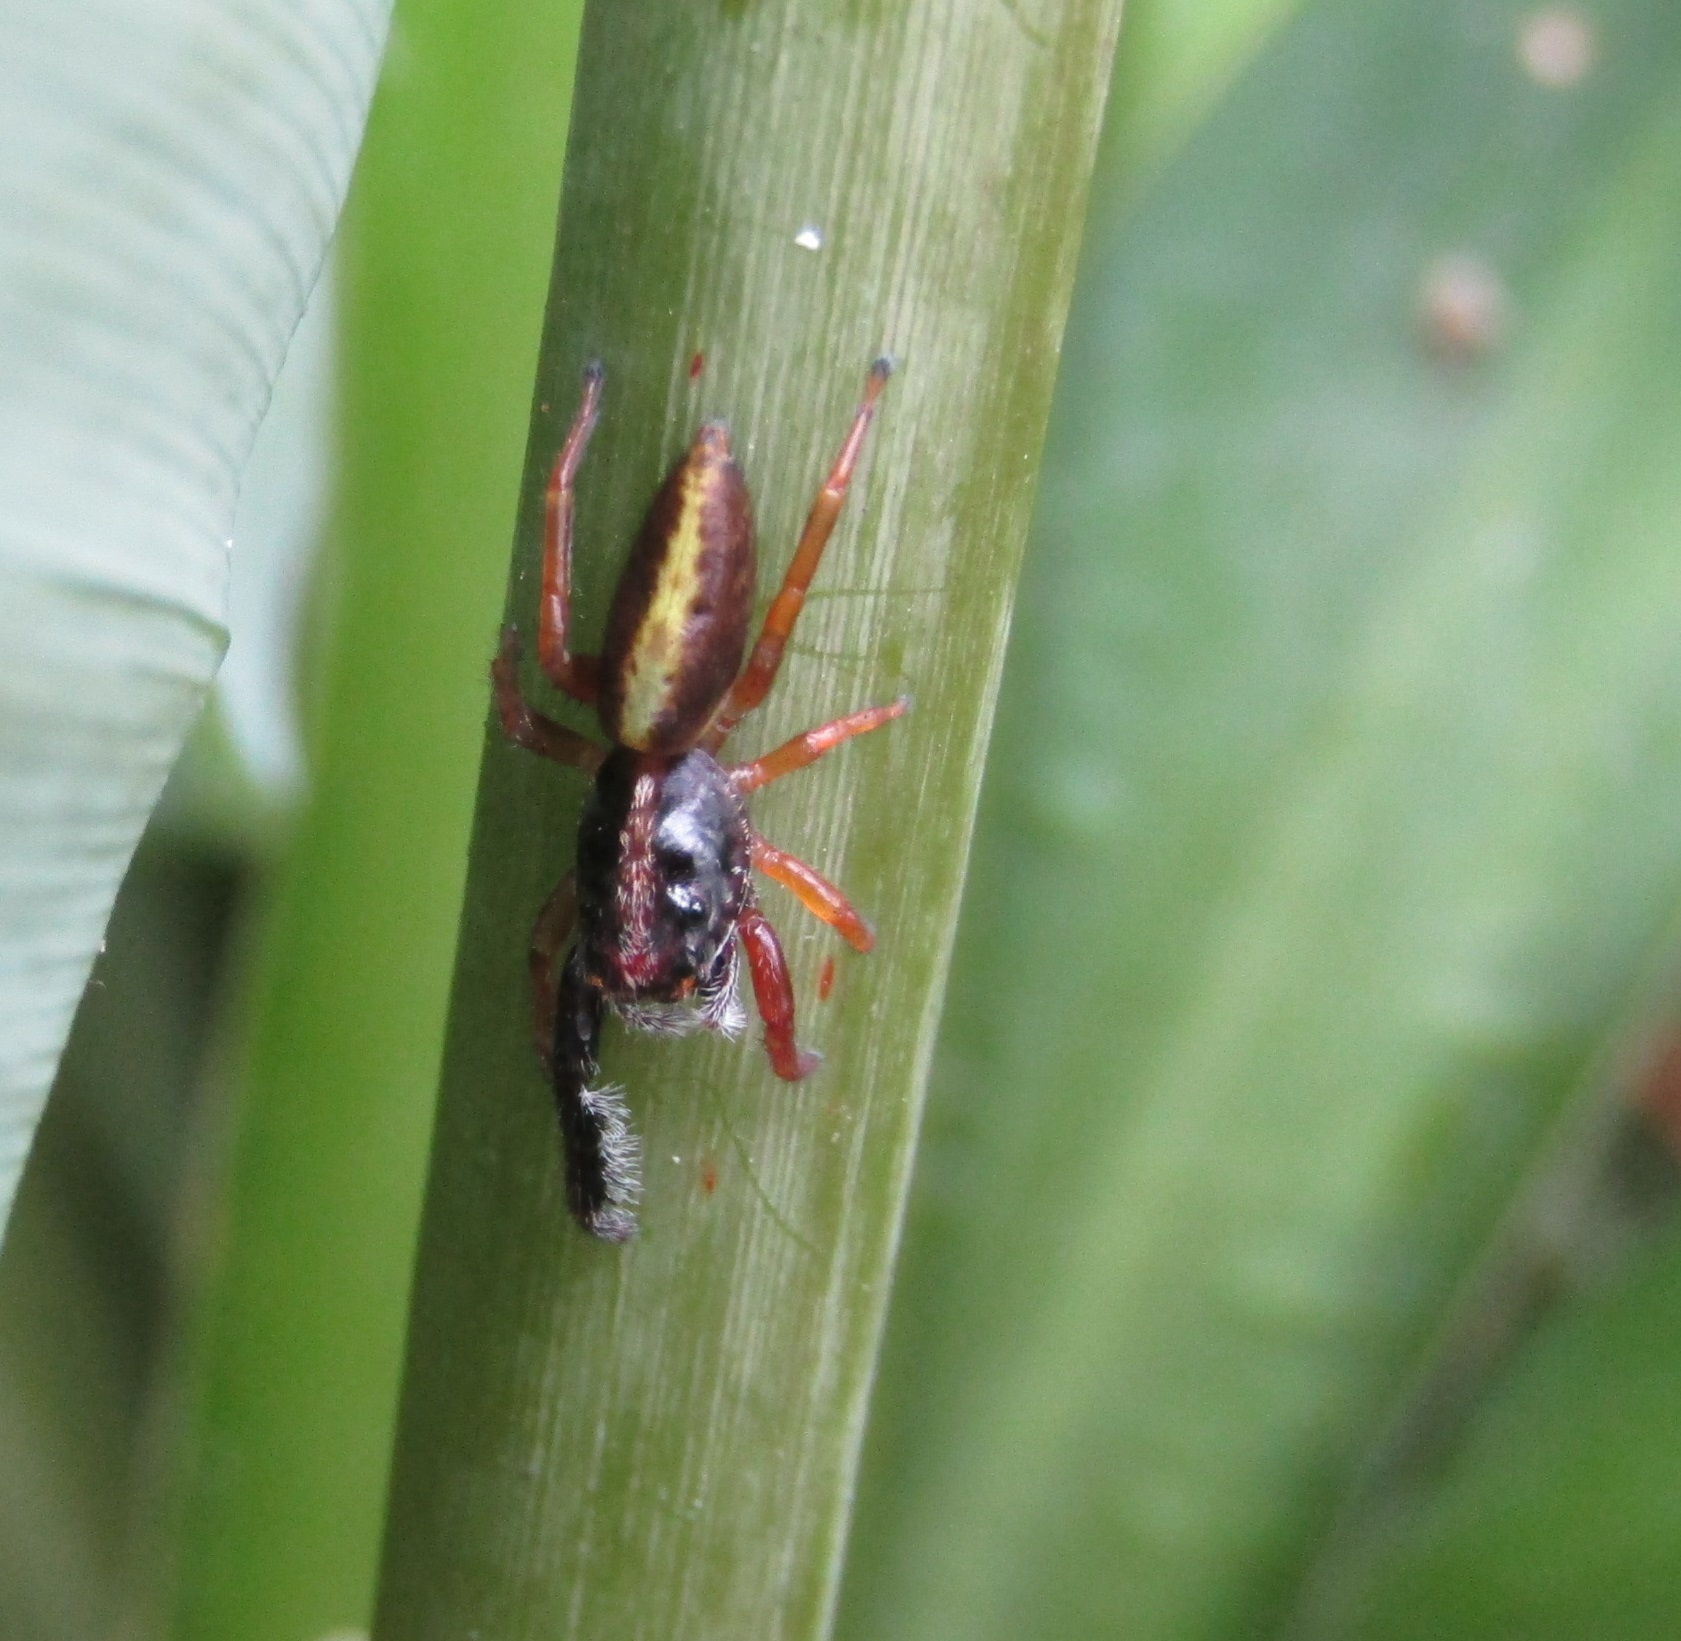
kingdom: Animalia
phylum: Arthropoda
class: Arachnida
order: Araneae
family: Salticidae
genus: Trite
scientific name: Trite planiceps
